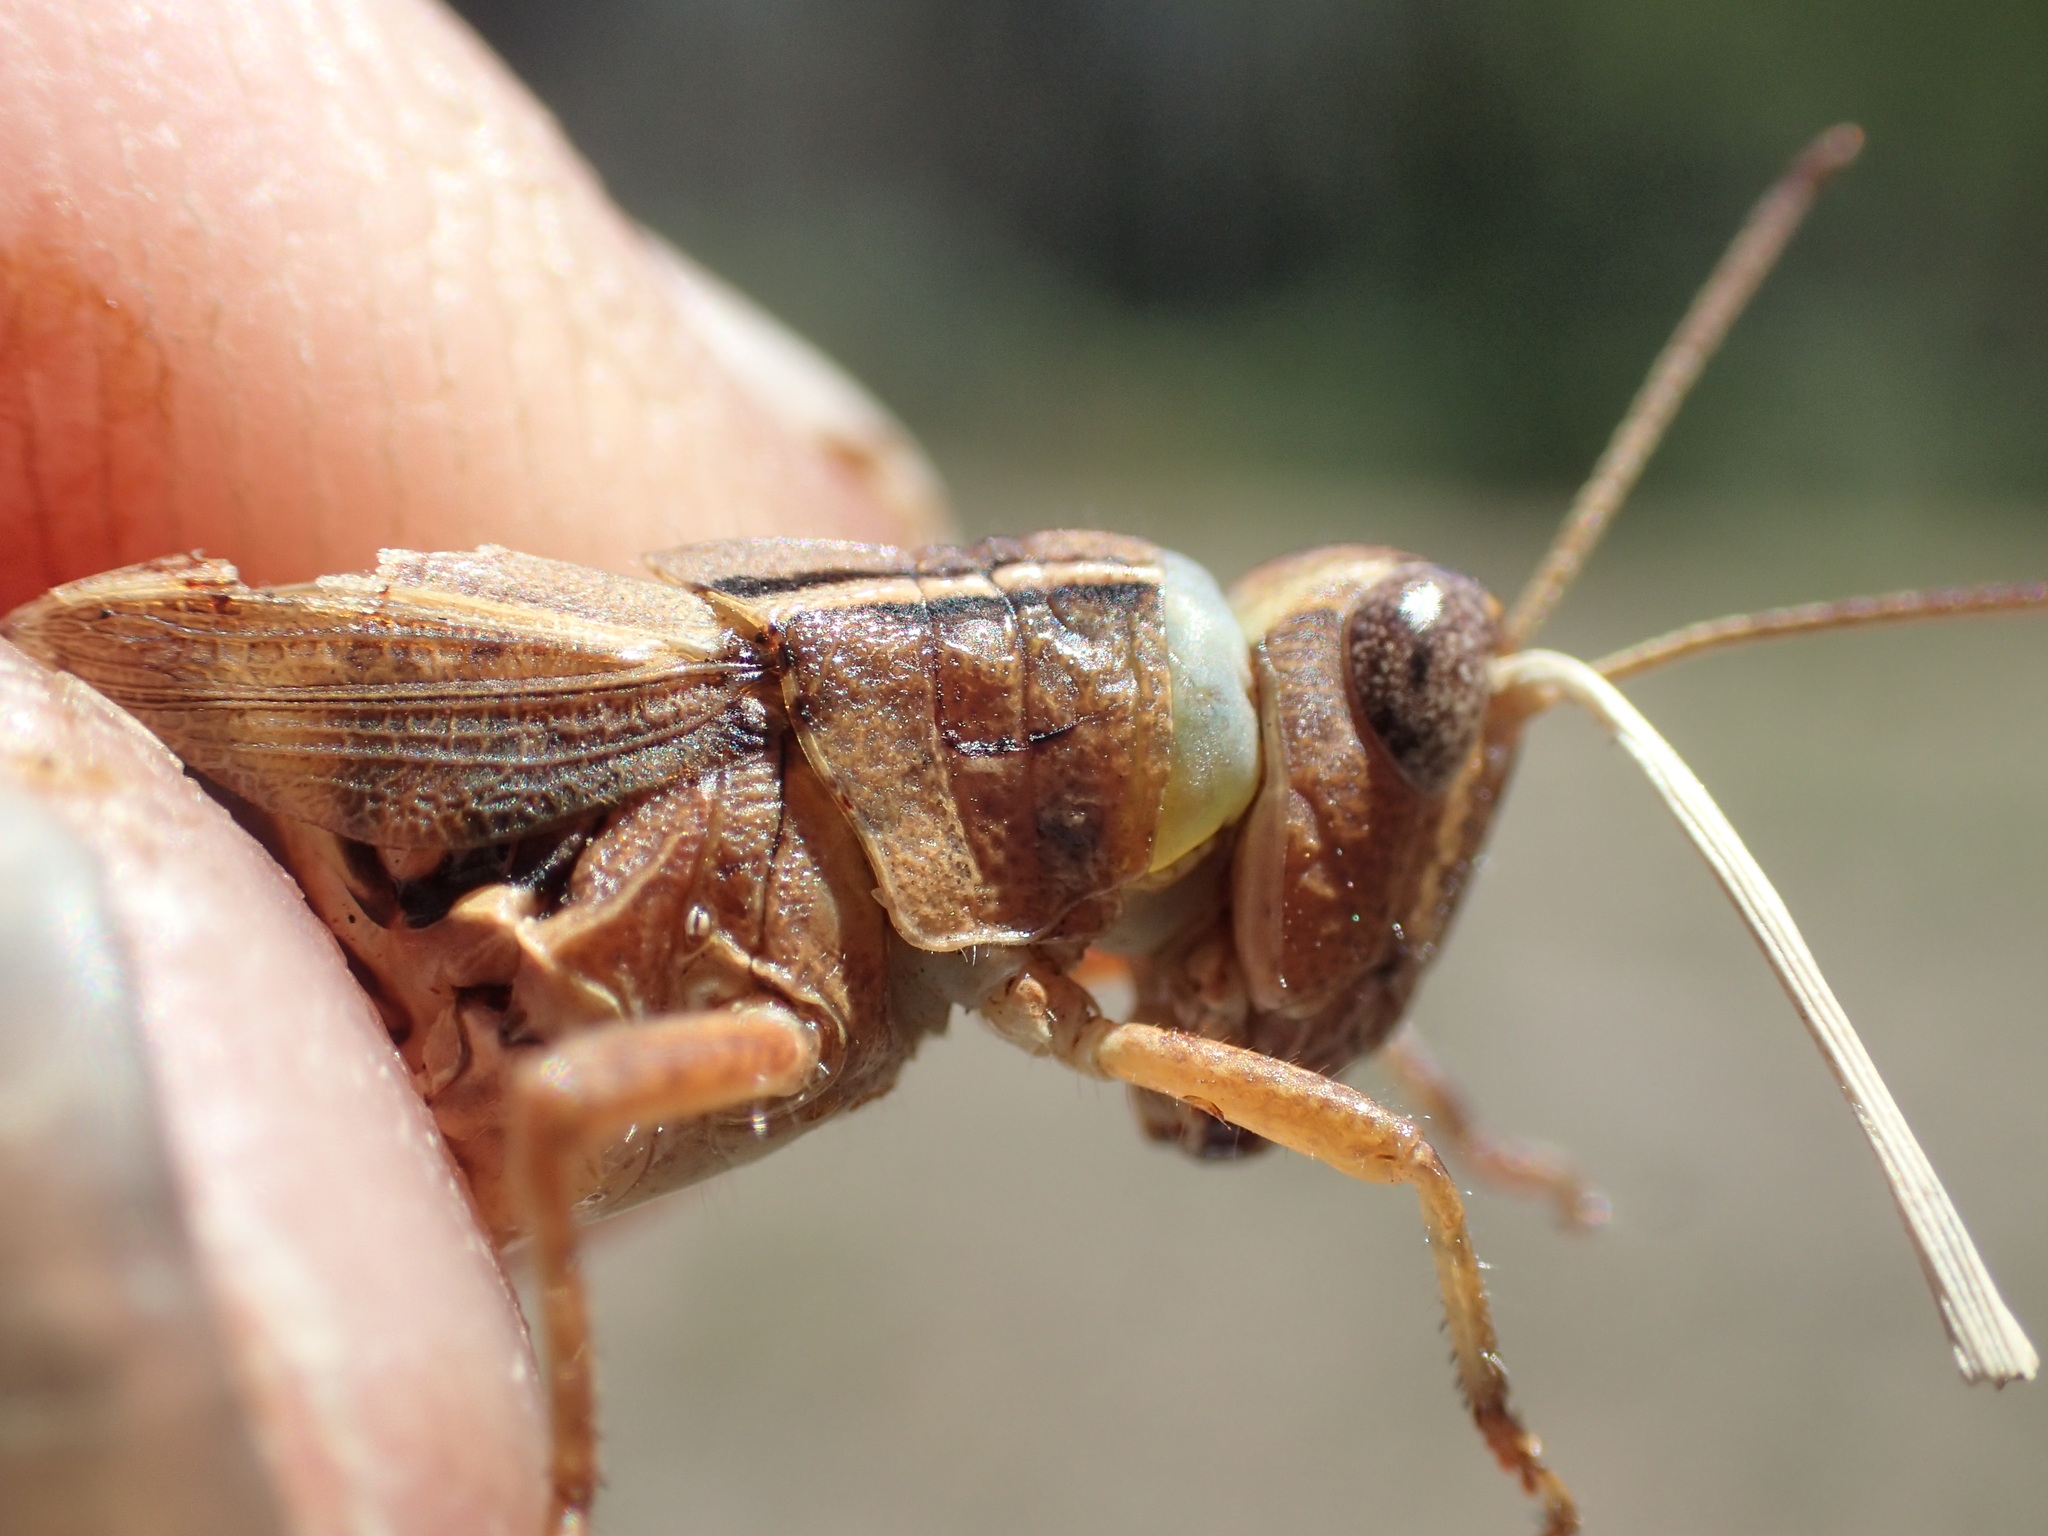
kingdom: Animalia
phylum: Arthropoda
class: Insecta
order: Orthoptera
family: Acrididae
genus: Phaulacridium
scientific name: Phaulacridium vittatum
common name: Wingless grasshopper
